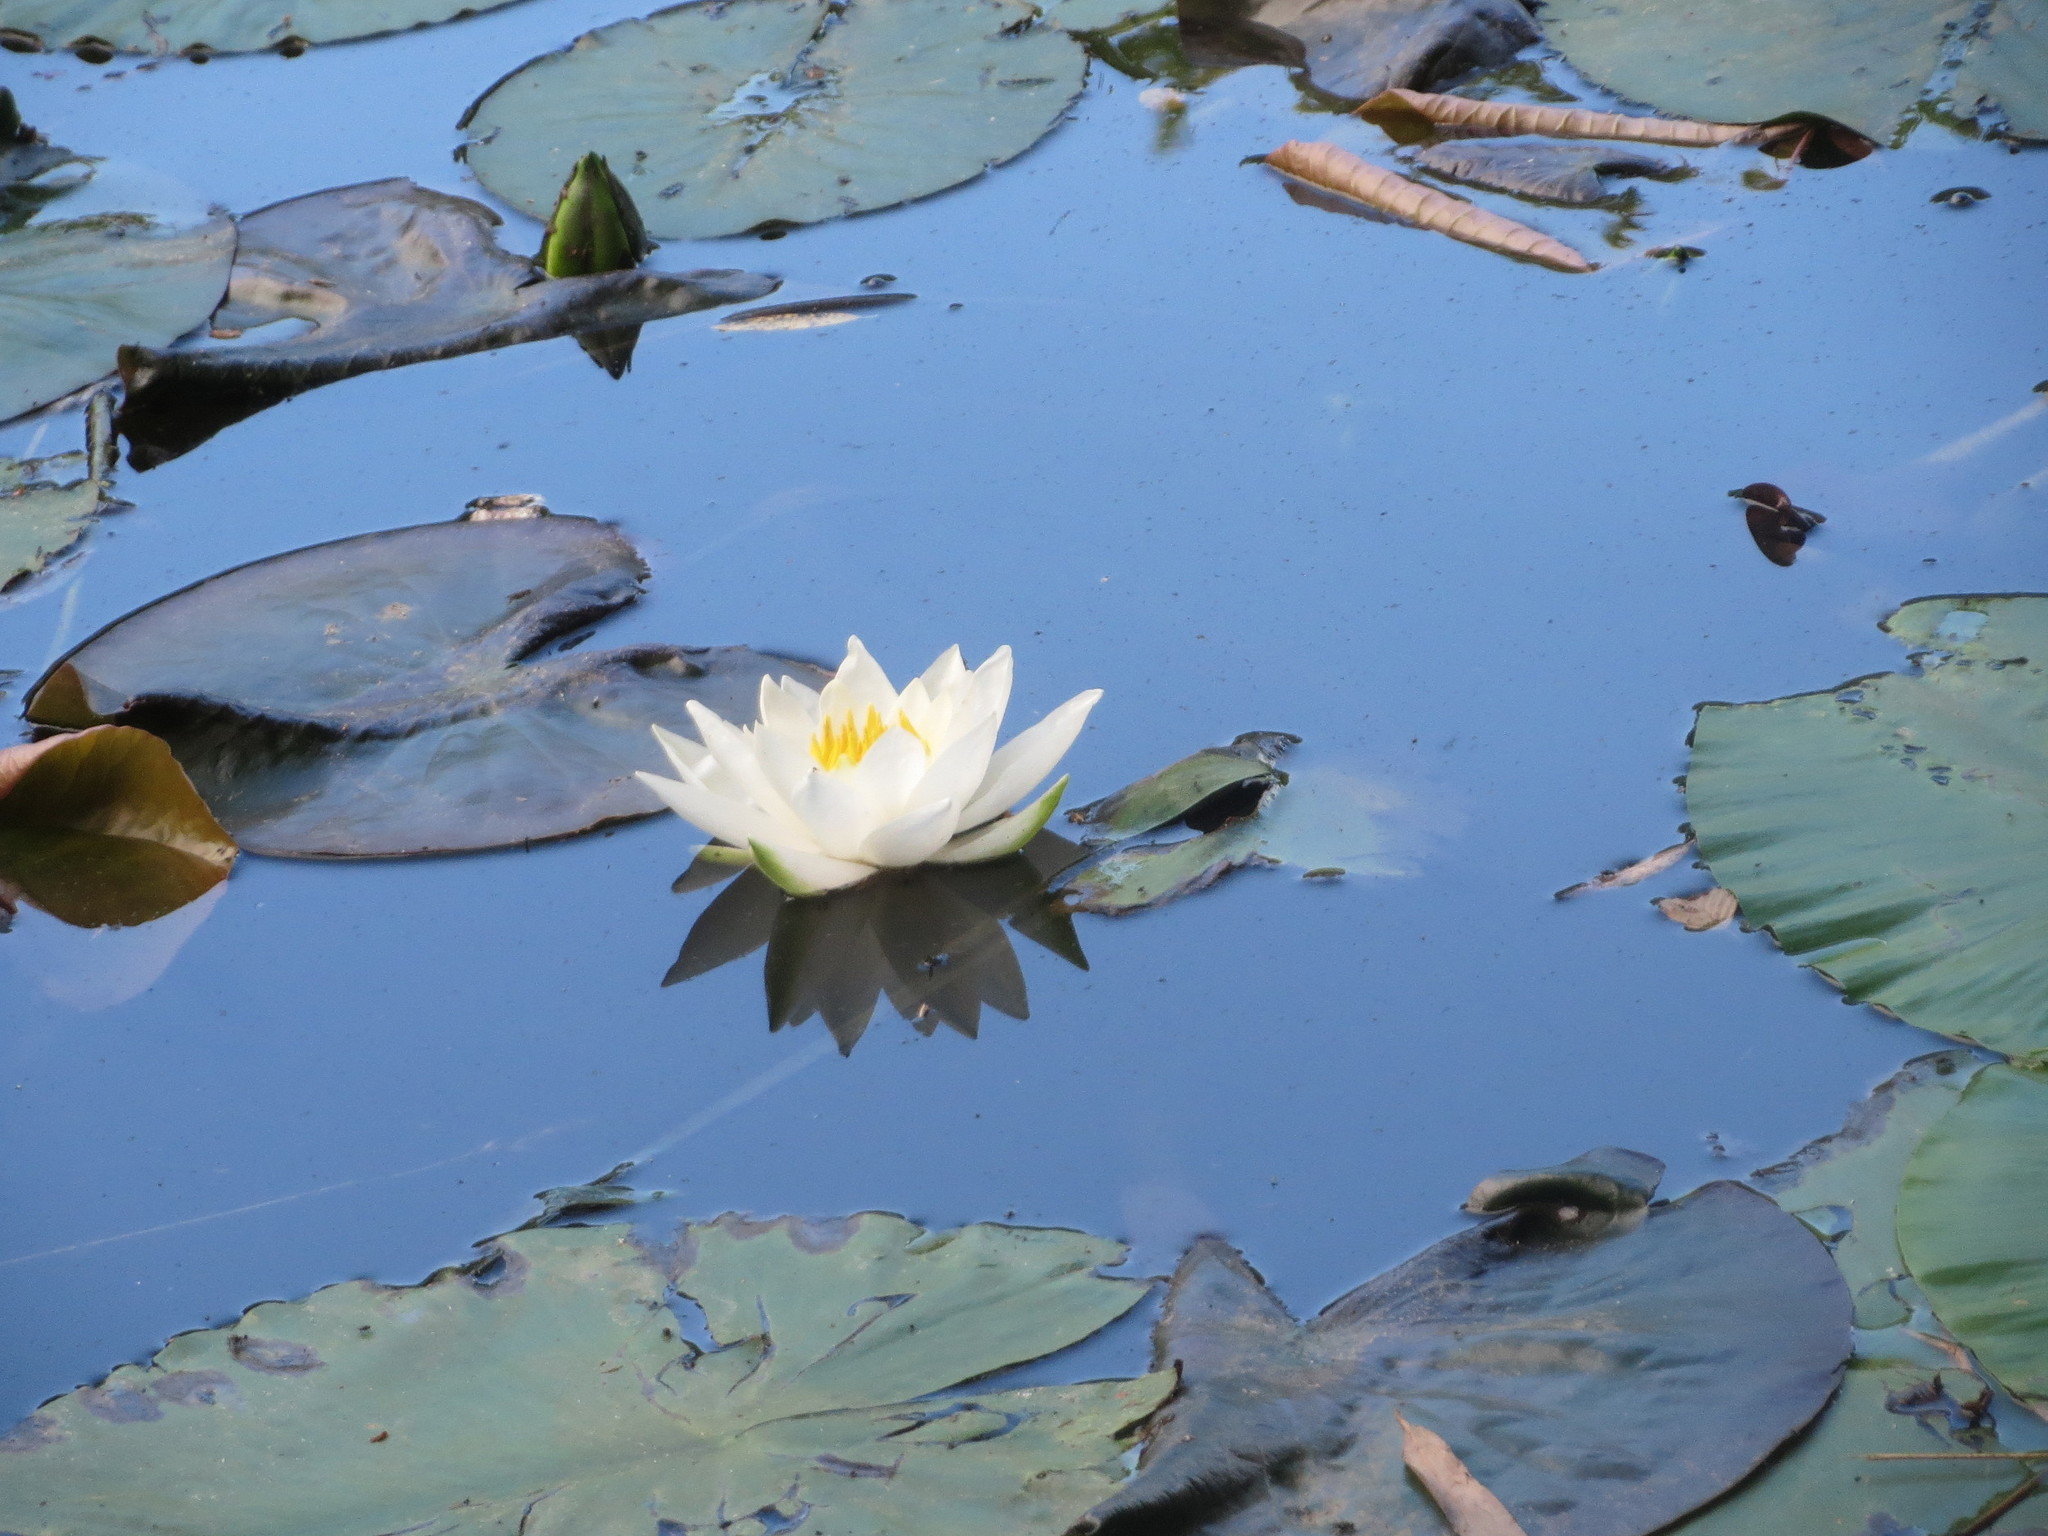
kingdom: Plantae
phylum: Tracheophyta
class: Magnoliopsida
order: Nymphaeales
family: Nymphaeaceae
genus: Nymphaea
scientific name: Nymphaea alba
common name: White water-lily
